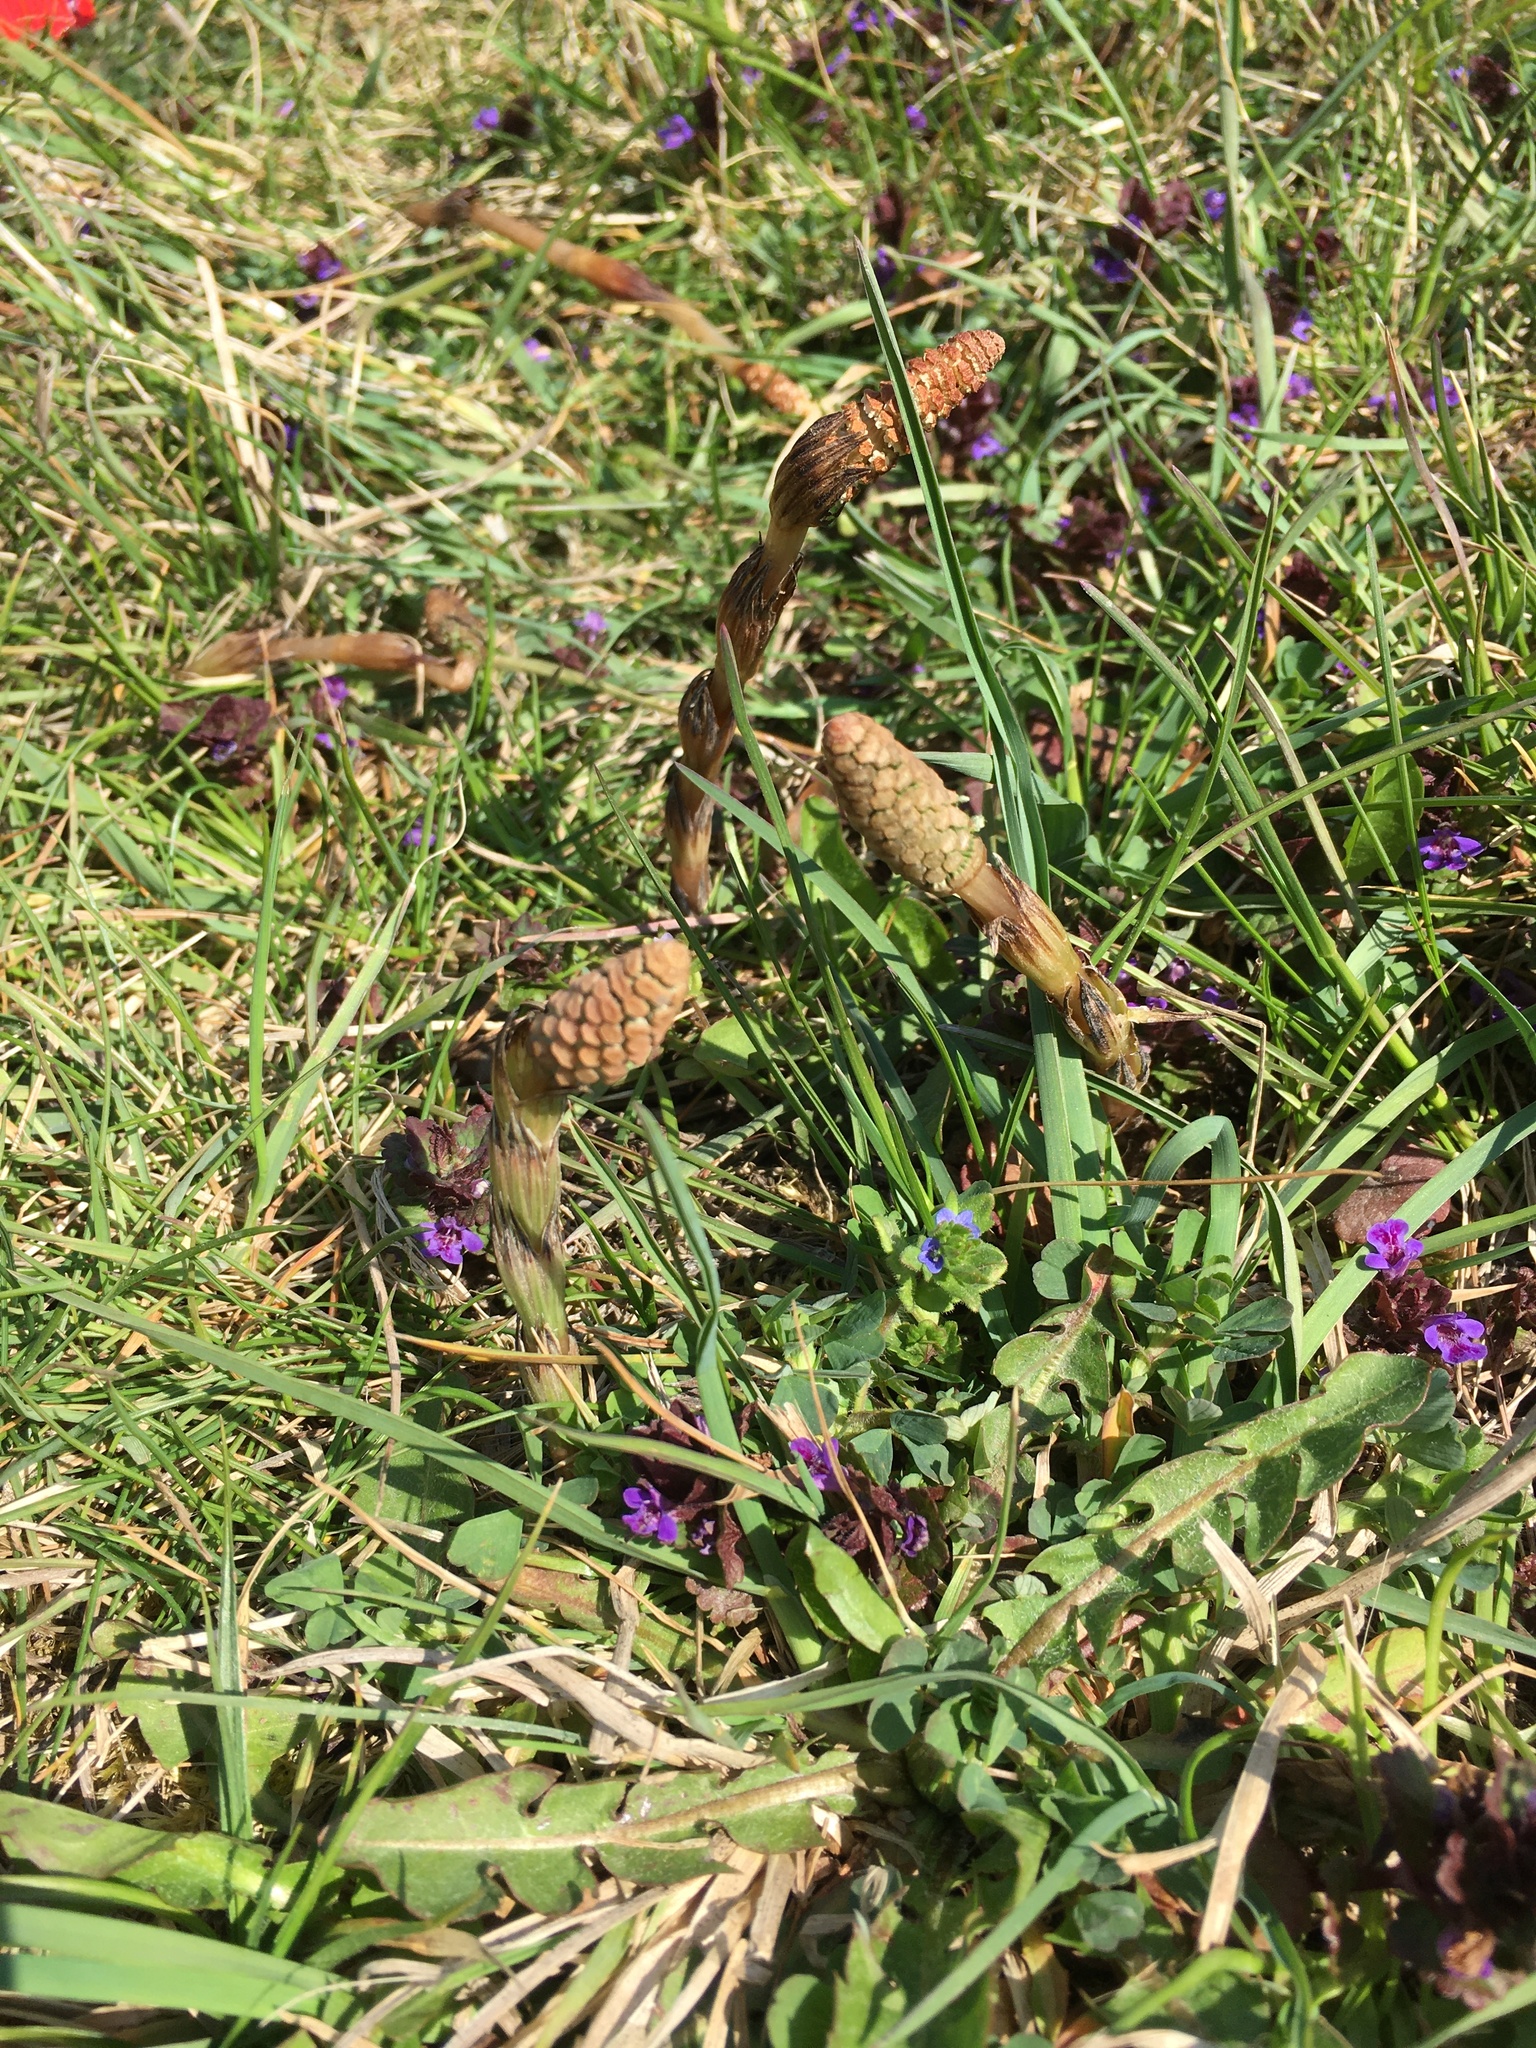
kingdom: Plantae
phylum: Tracheophyta
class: Polypodiopsida
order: Equisetales
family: Equisetaceae
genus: Equisetum
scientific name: Equisetum arvense
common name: Field horsetail
